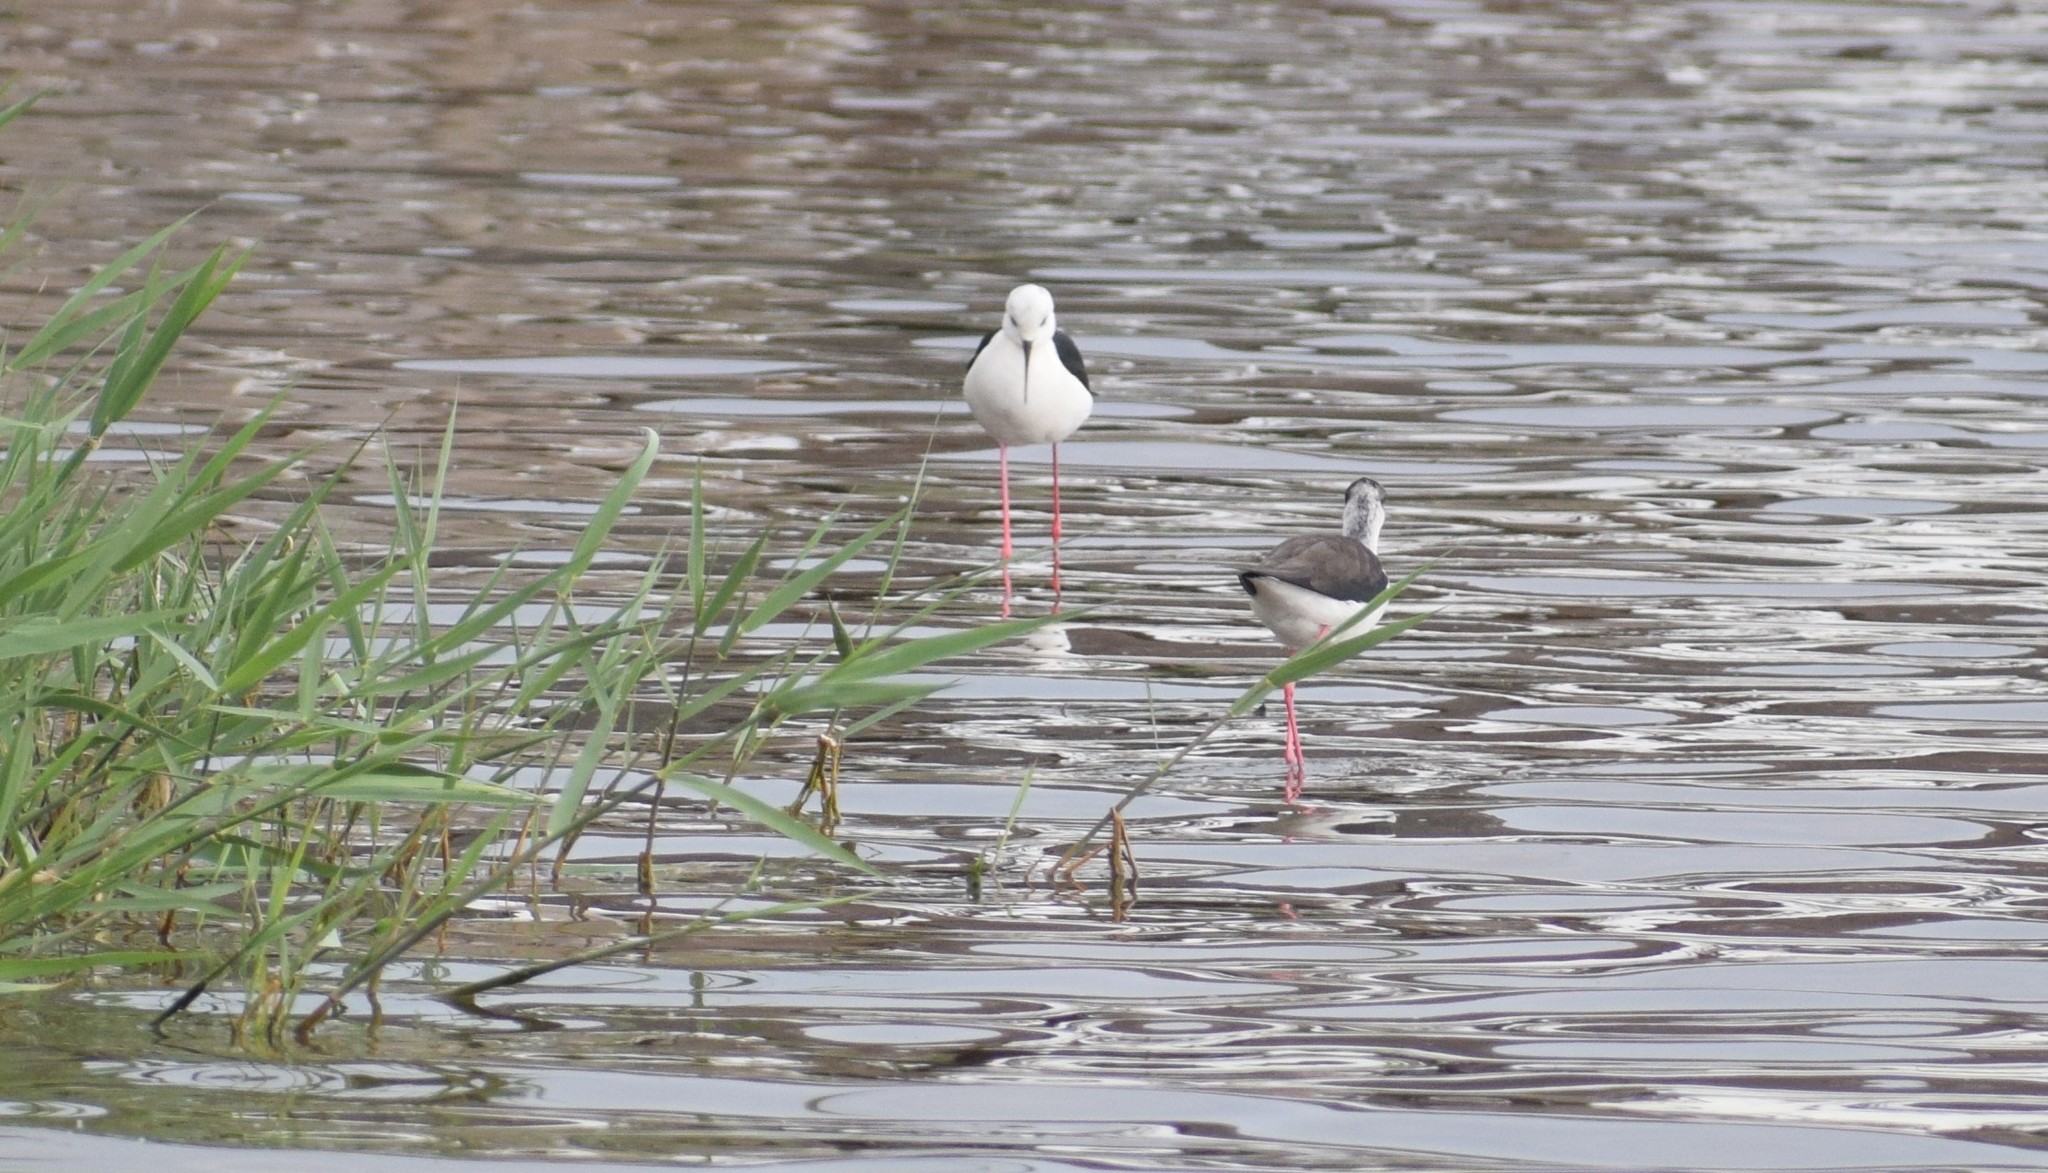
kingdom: Animalia
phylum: Chordata
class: Aves
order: Charadriiformes
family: Recurvirostridae
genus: Himantopus
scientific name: Himantopus himantopus
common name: Black-winged stilt
